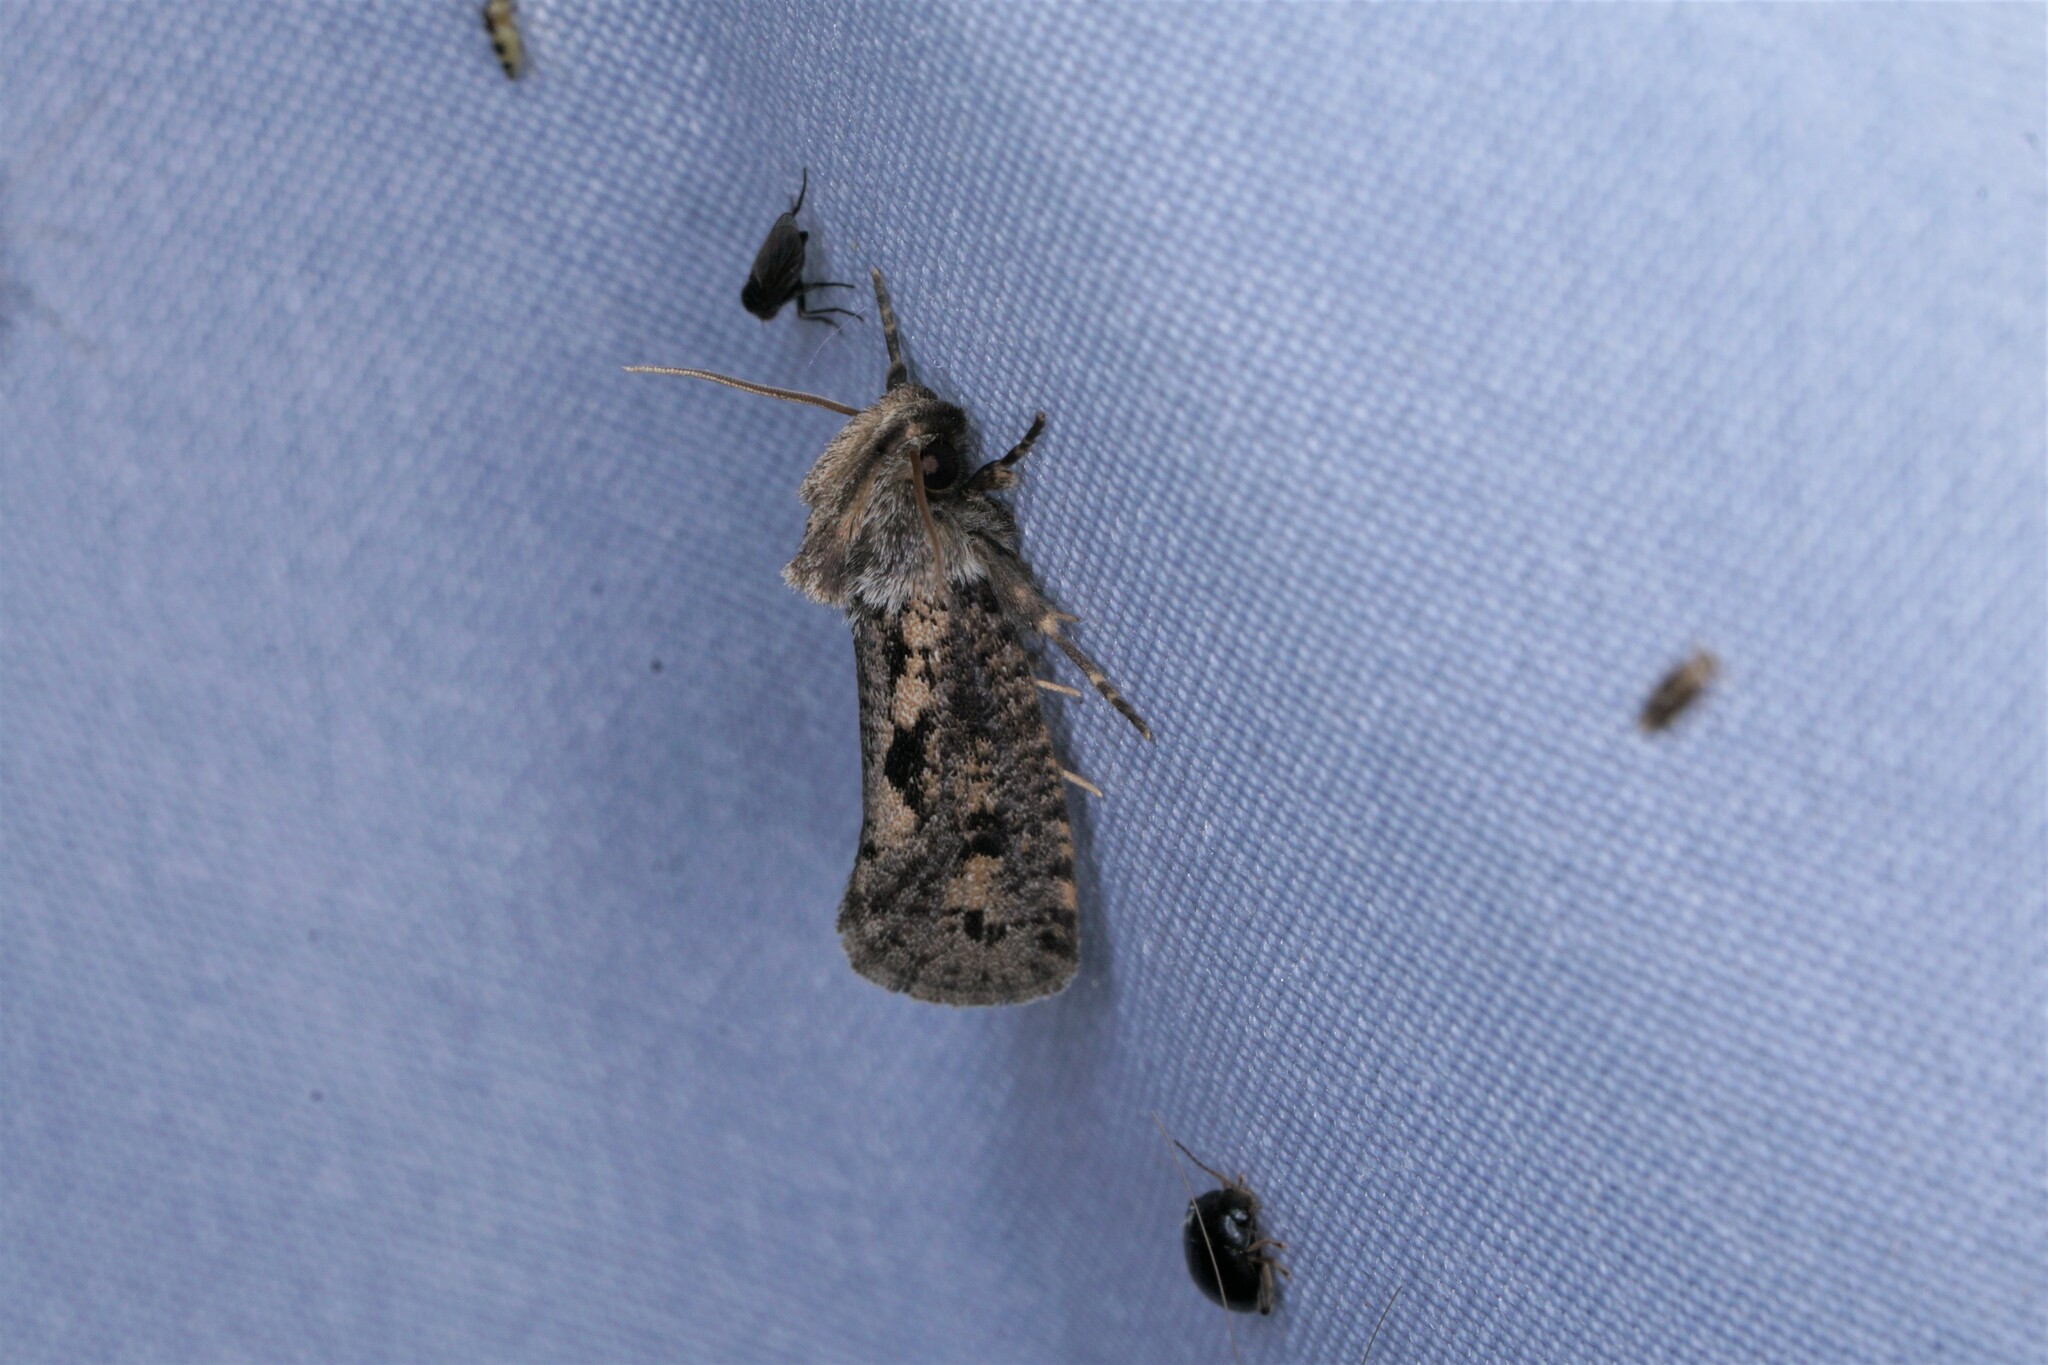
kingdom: Animalia
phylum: Arthropoda
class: Insecta
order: Lepidoptera
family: Tineidae
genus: Acrolophus
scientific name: Acrolophus popeanella
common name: Clemens' grass tubeworm moth
